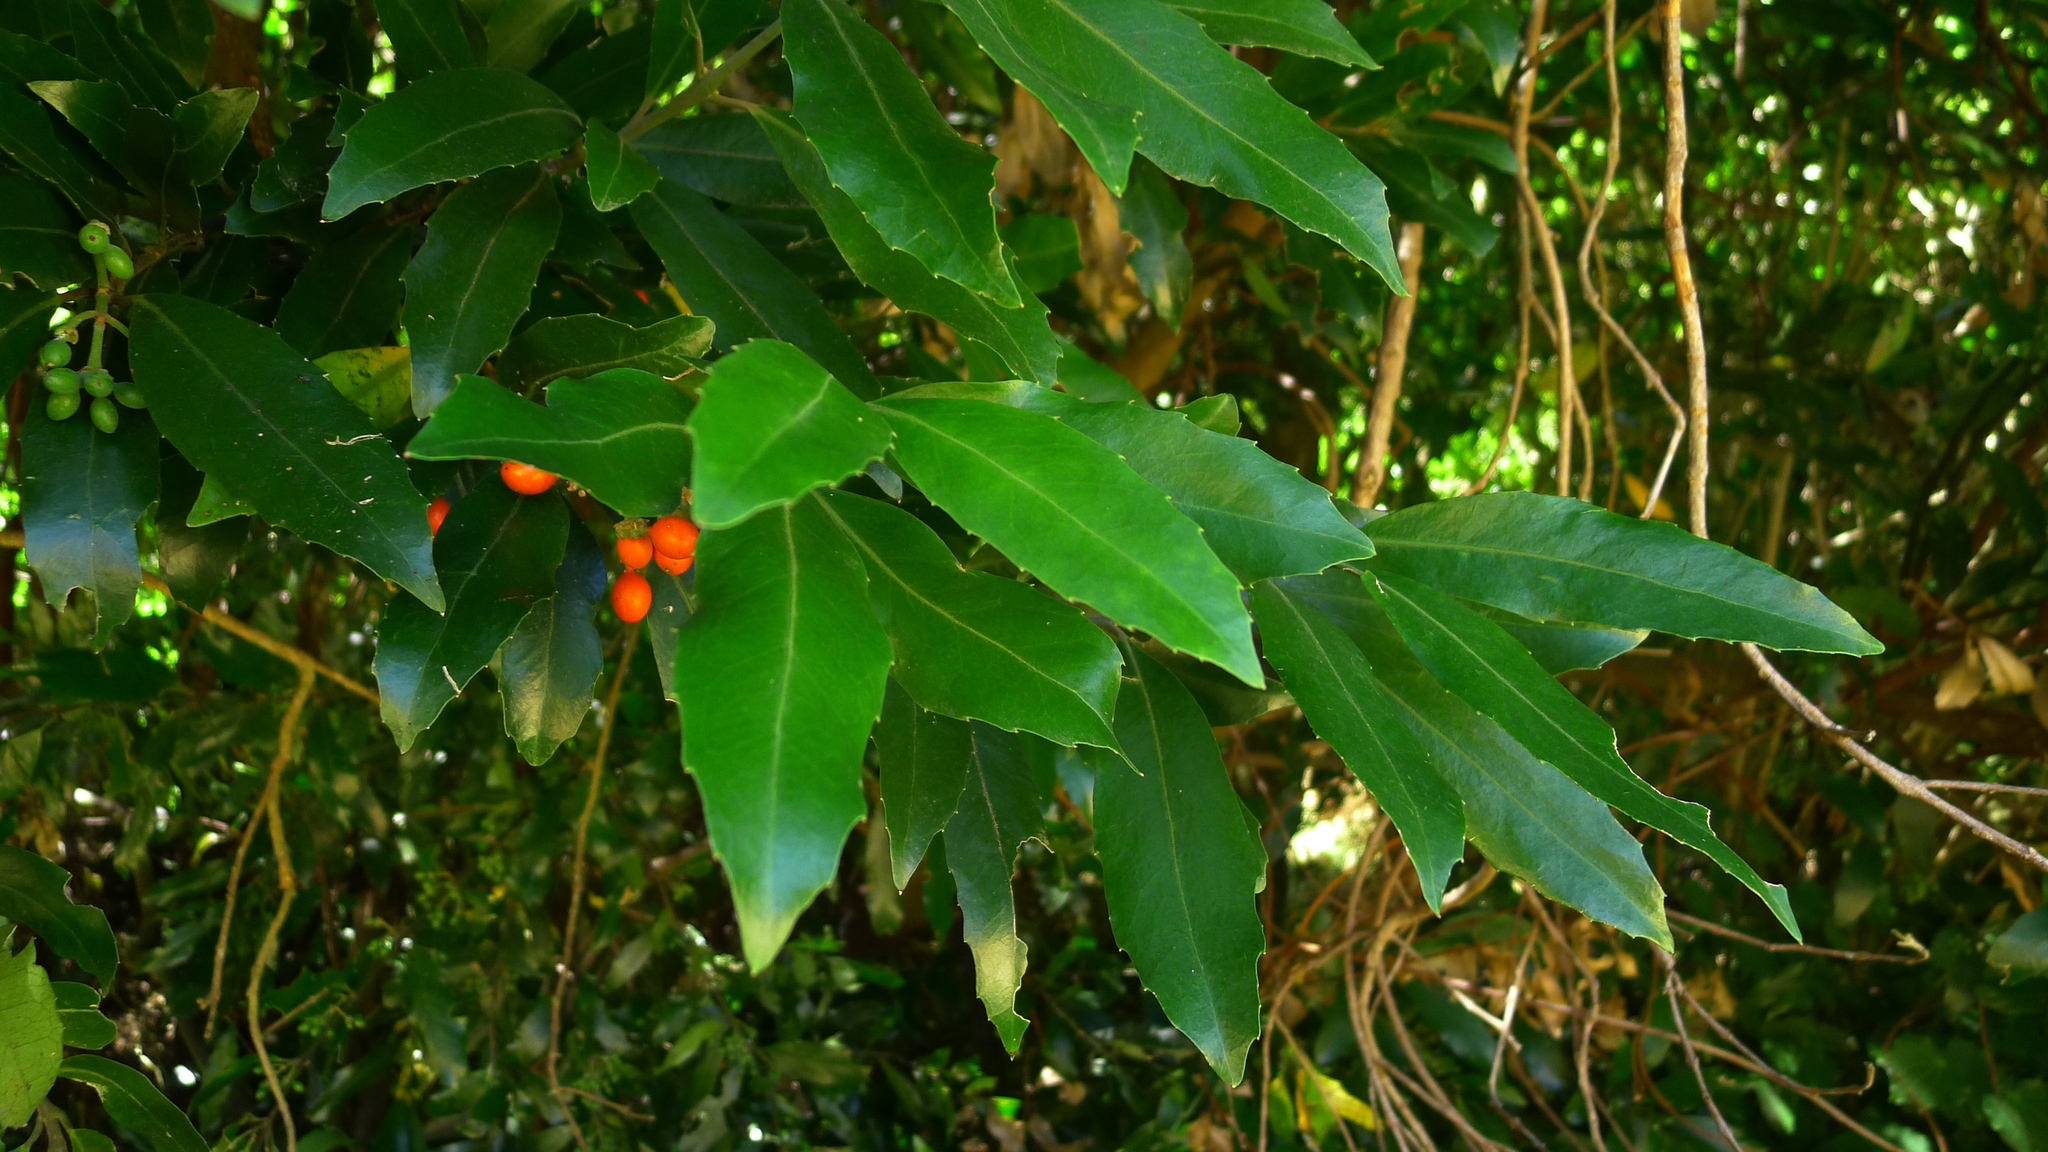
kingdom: Plantae
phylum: Tracheophyta
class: Magnoliopsida
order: Laurales
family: Monimiaceae
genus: Hedycarya
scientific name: Hedycarya arborea
